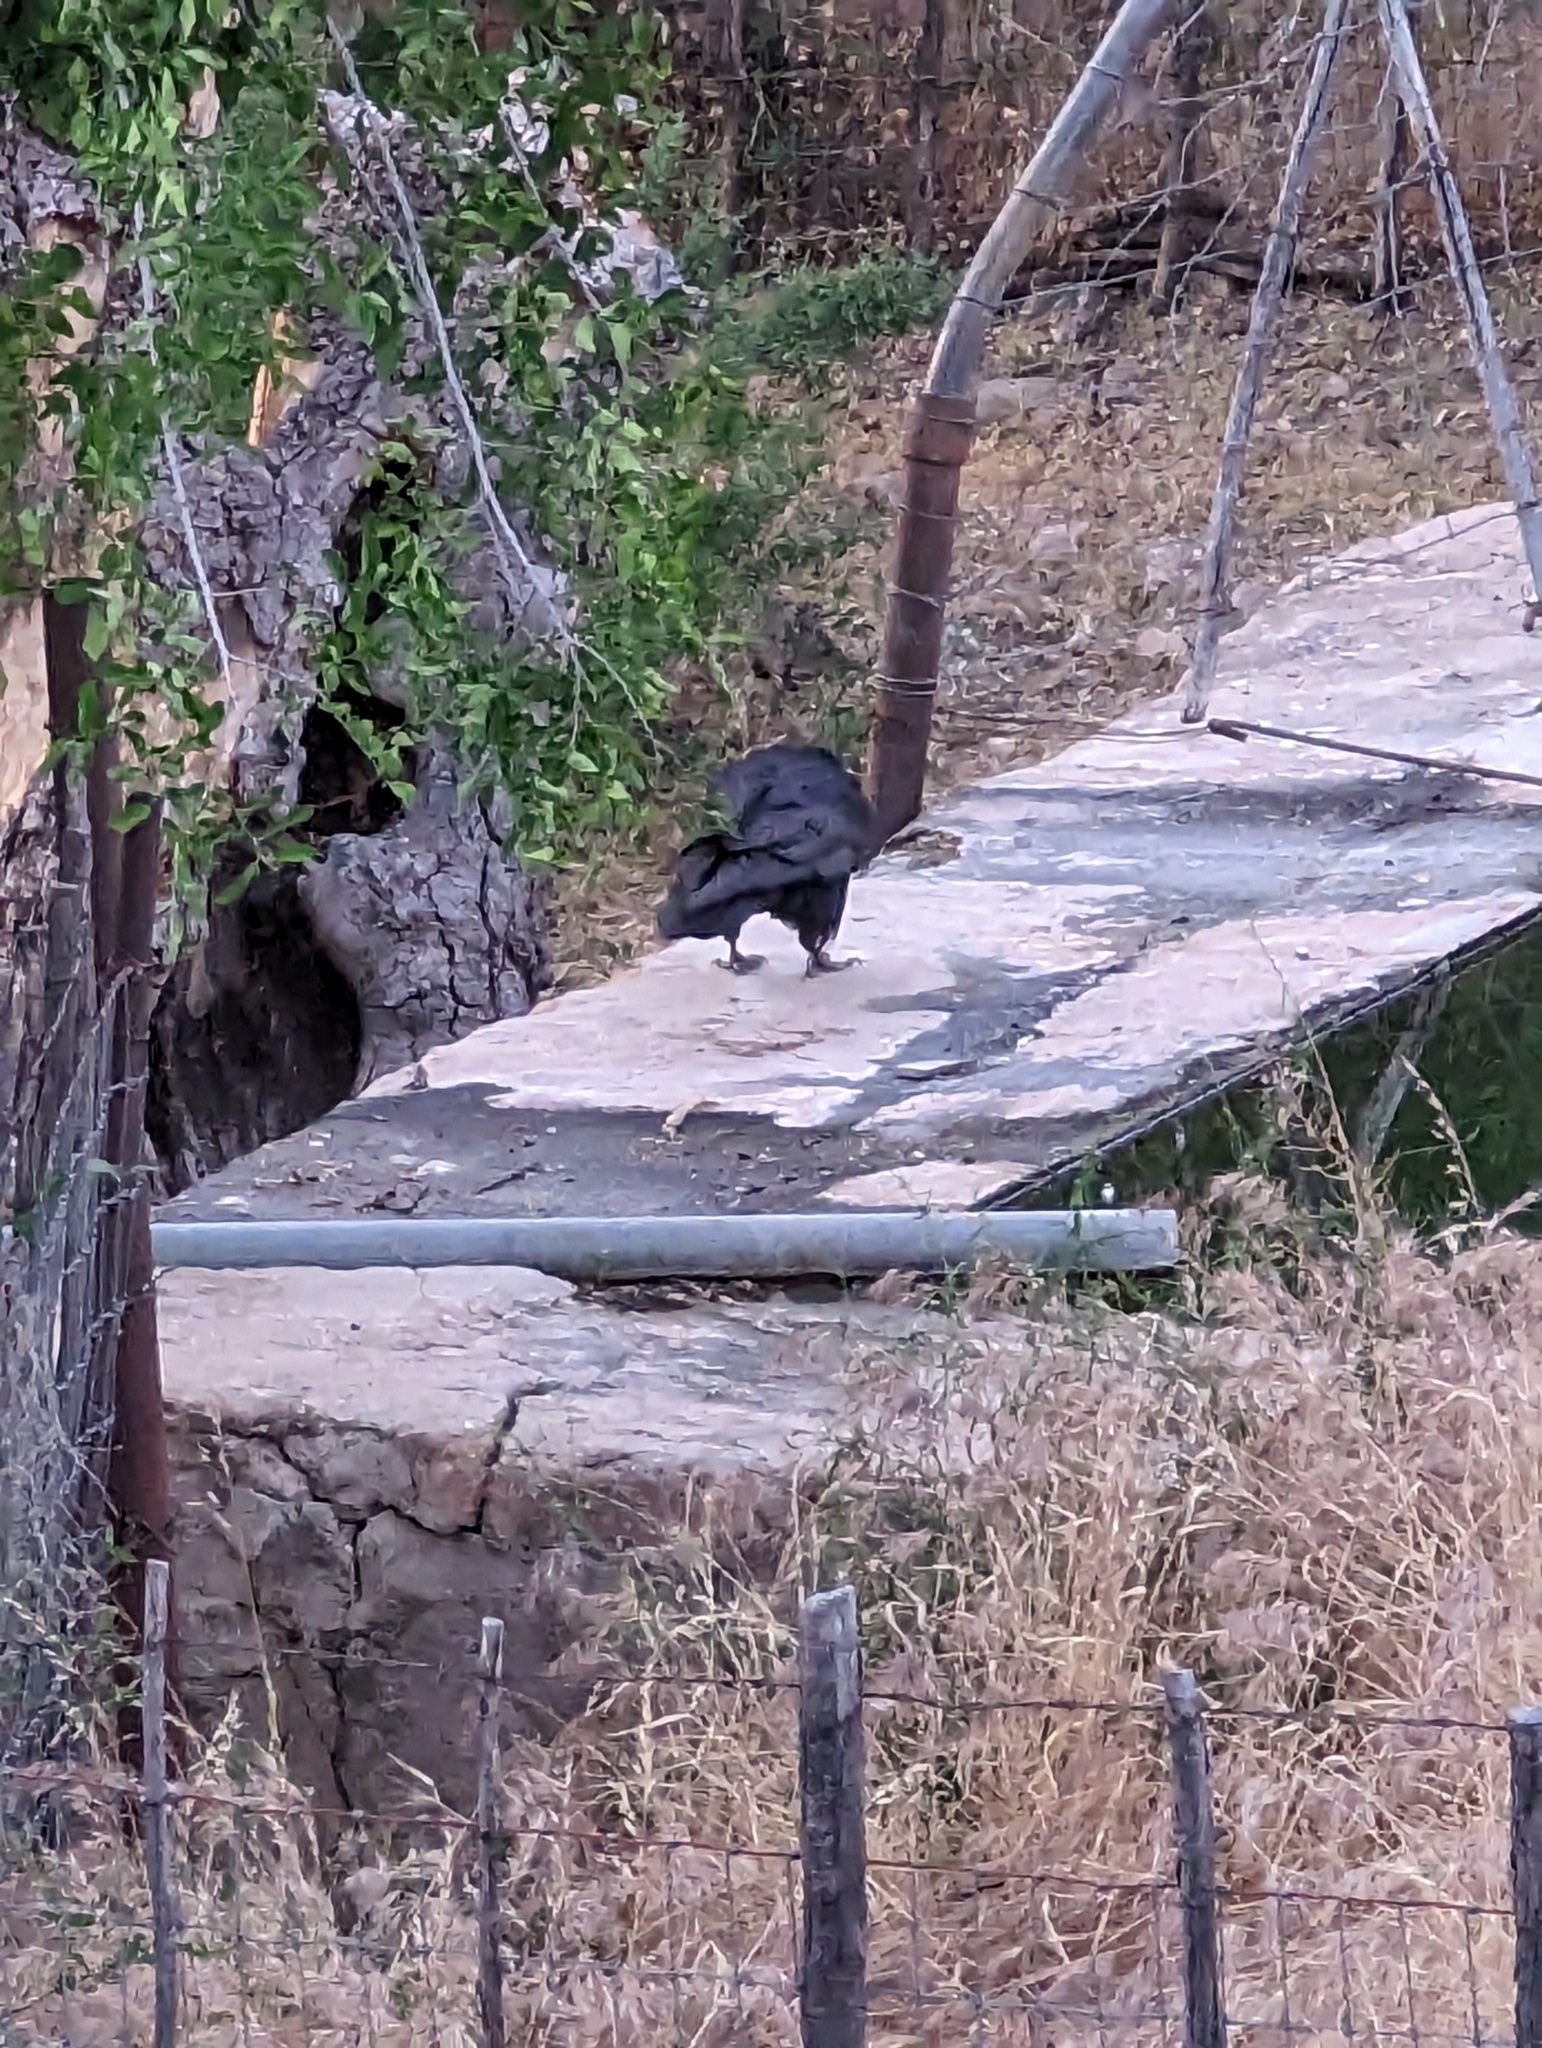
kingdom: Animalia
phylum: Chordata
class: Aves
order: Passeriformes
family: Corvidae
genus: Corvus
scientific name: Corvus corax
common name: Common raven
